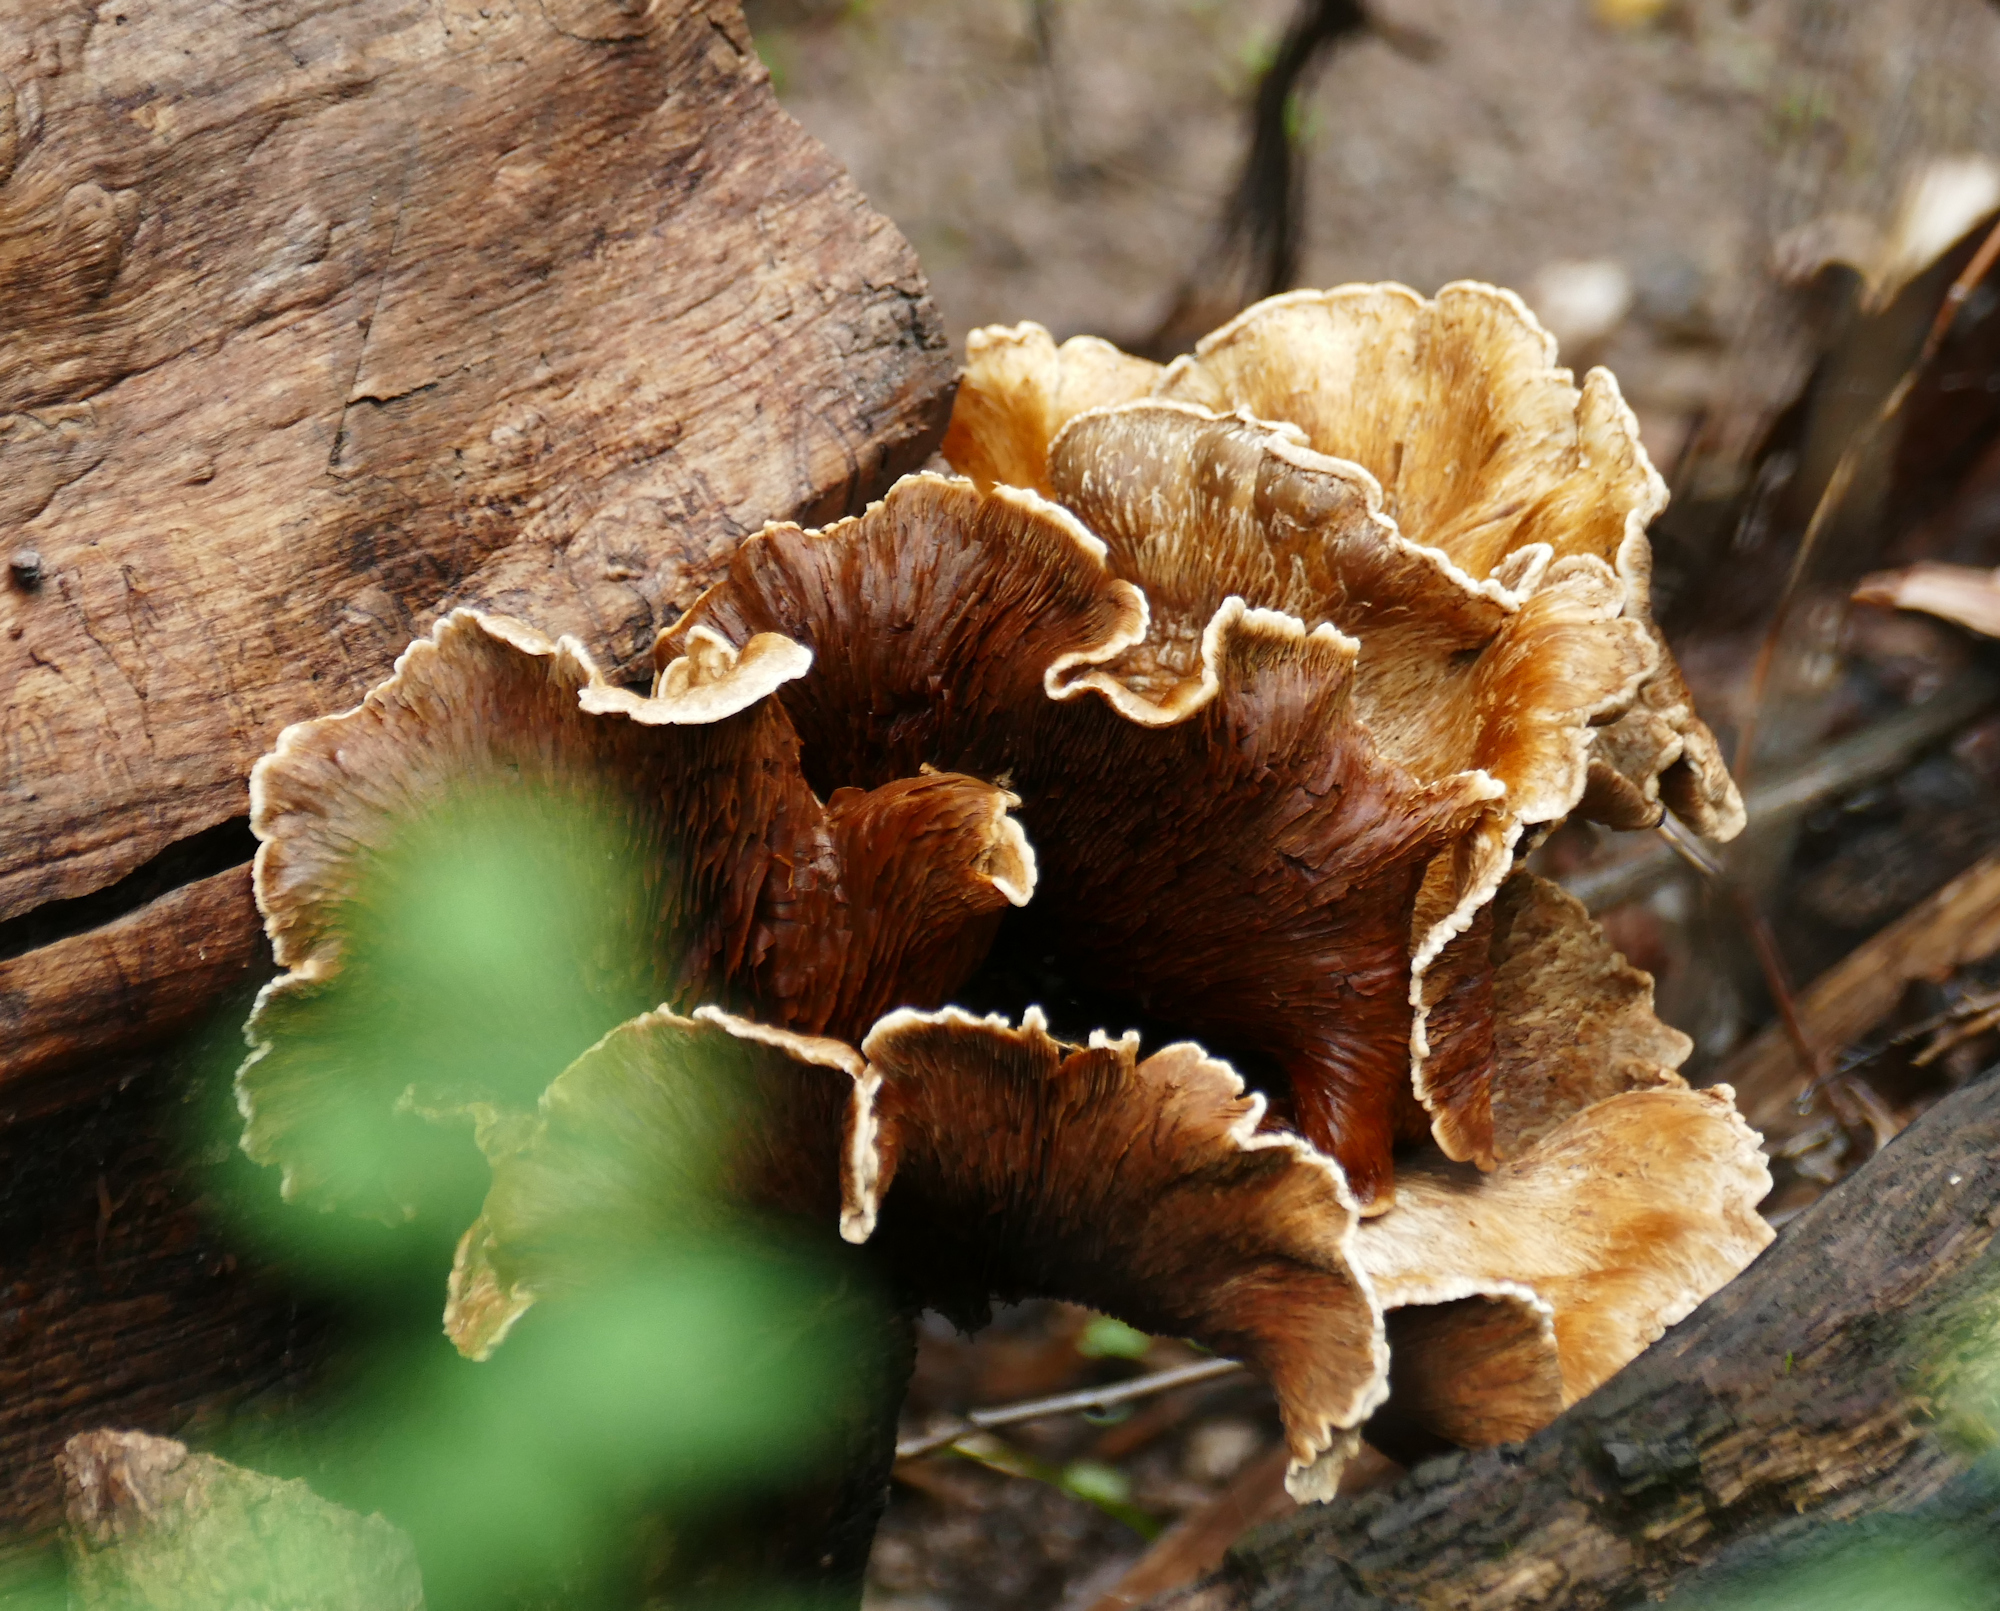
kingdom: Fungi
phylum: Basidiomycota
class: Agaricomycetes
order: Gomphales
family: Gomphaceae
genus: Gomphus
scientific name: Gomphus clavatus
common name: Pig's ear
